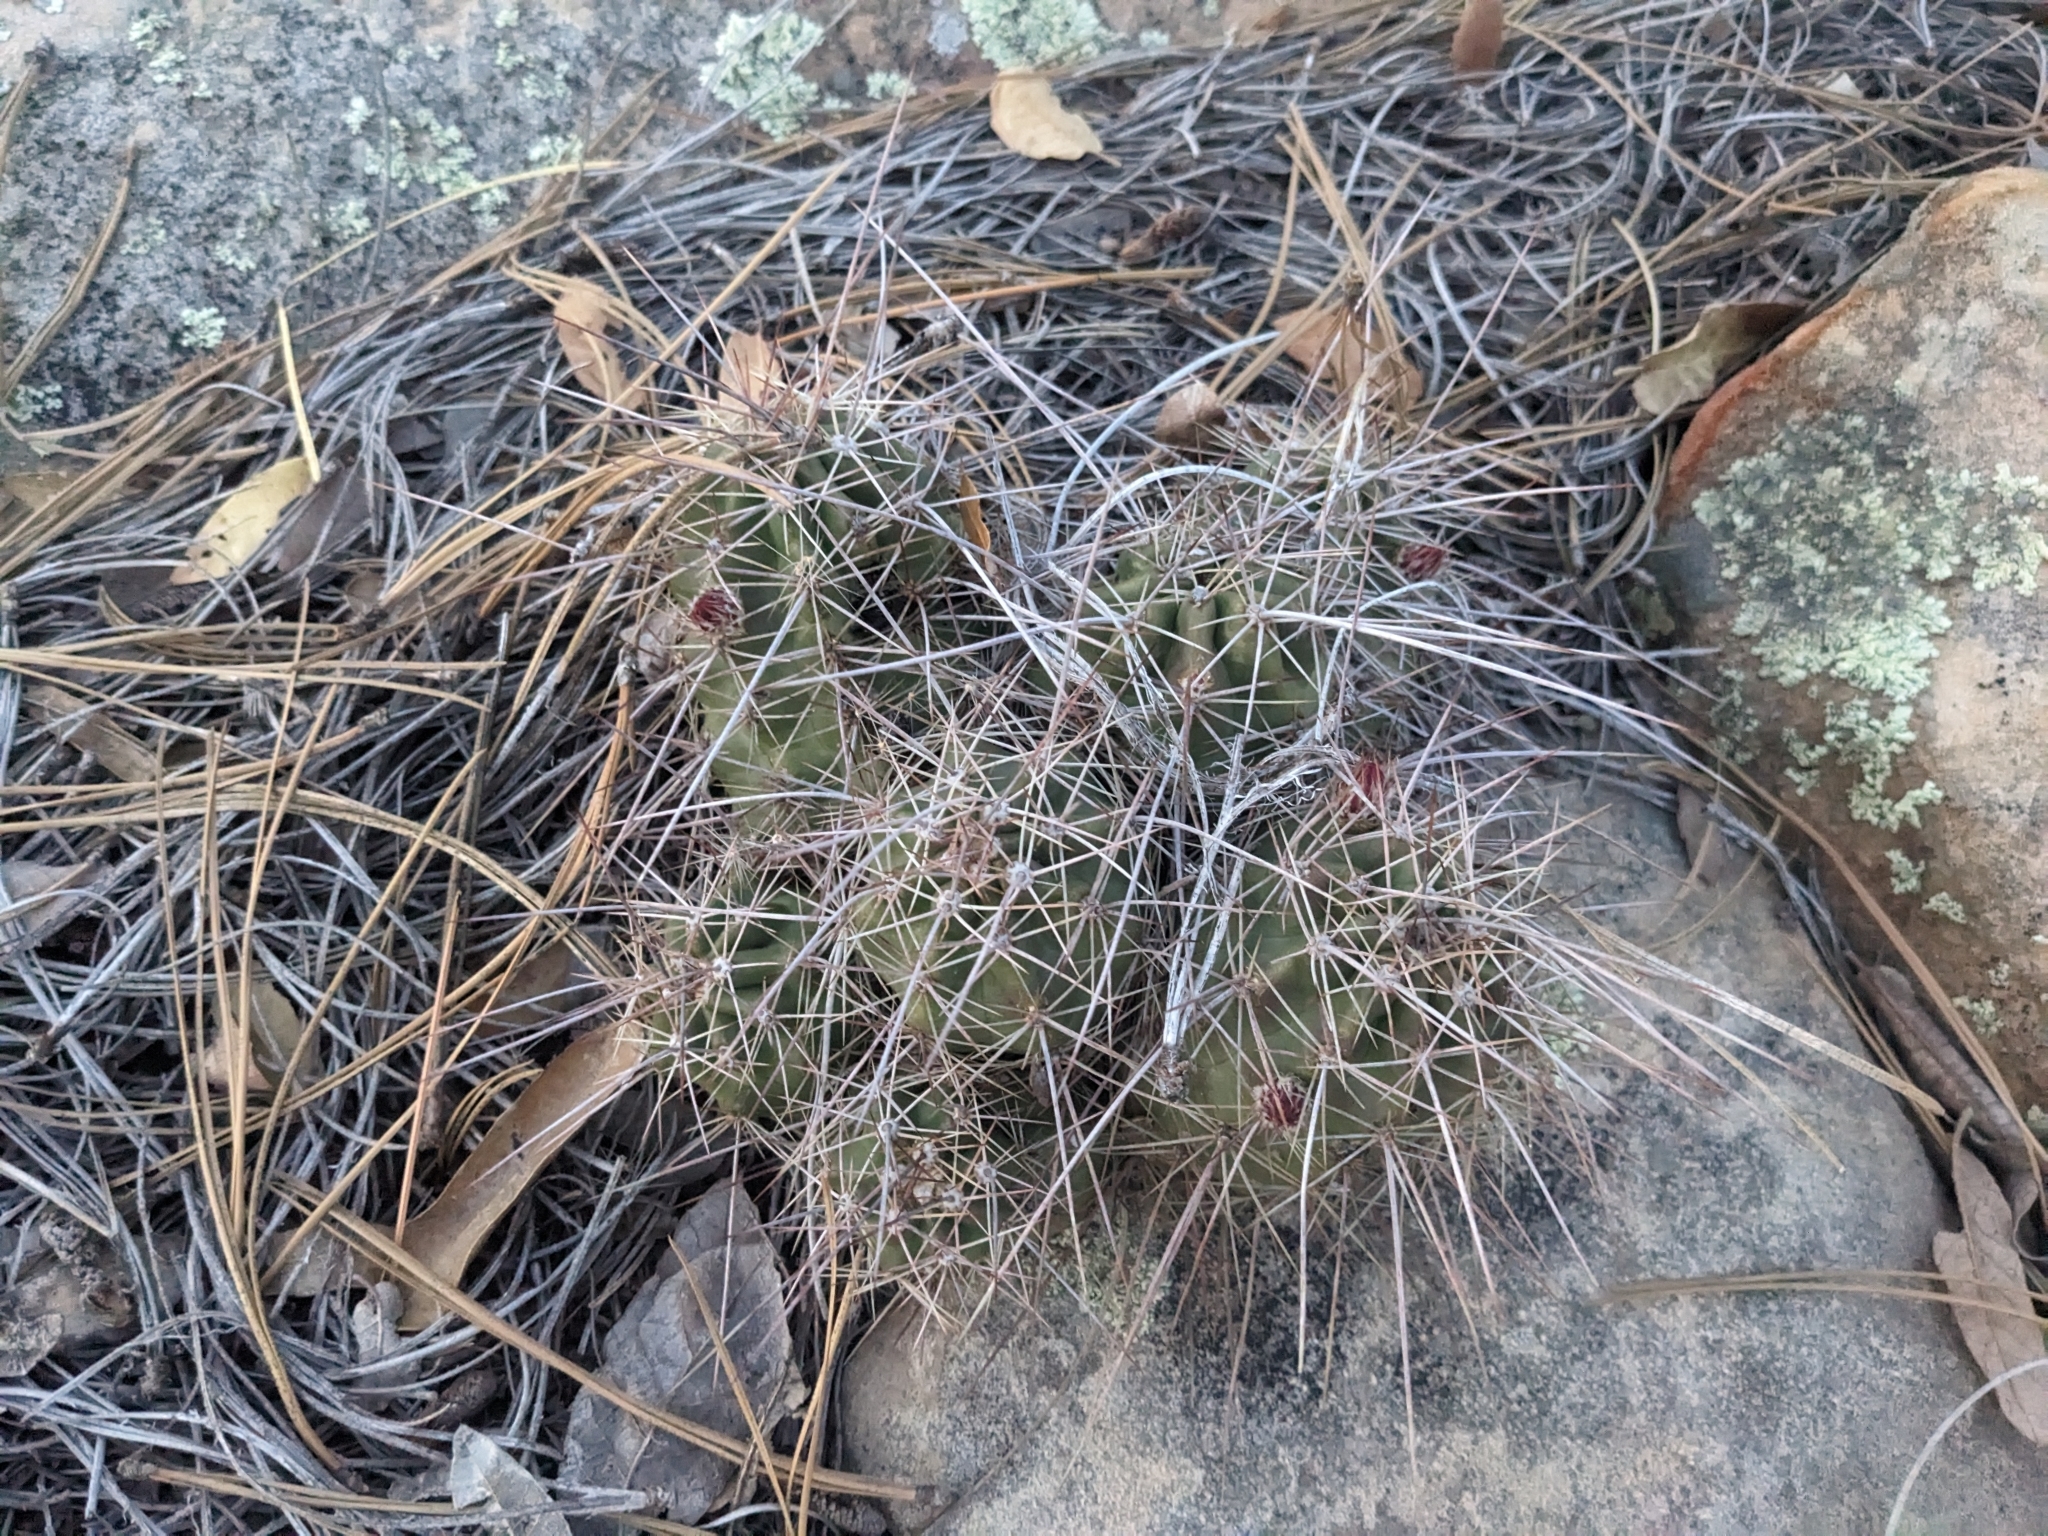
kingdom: Plantae
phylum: Tracheophyta
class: Magnoliopsida
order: Caryophyllales
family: Cactaceae
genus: Echinocereus
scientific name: Echinocereus bakeri
